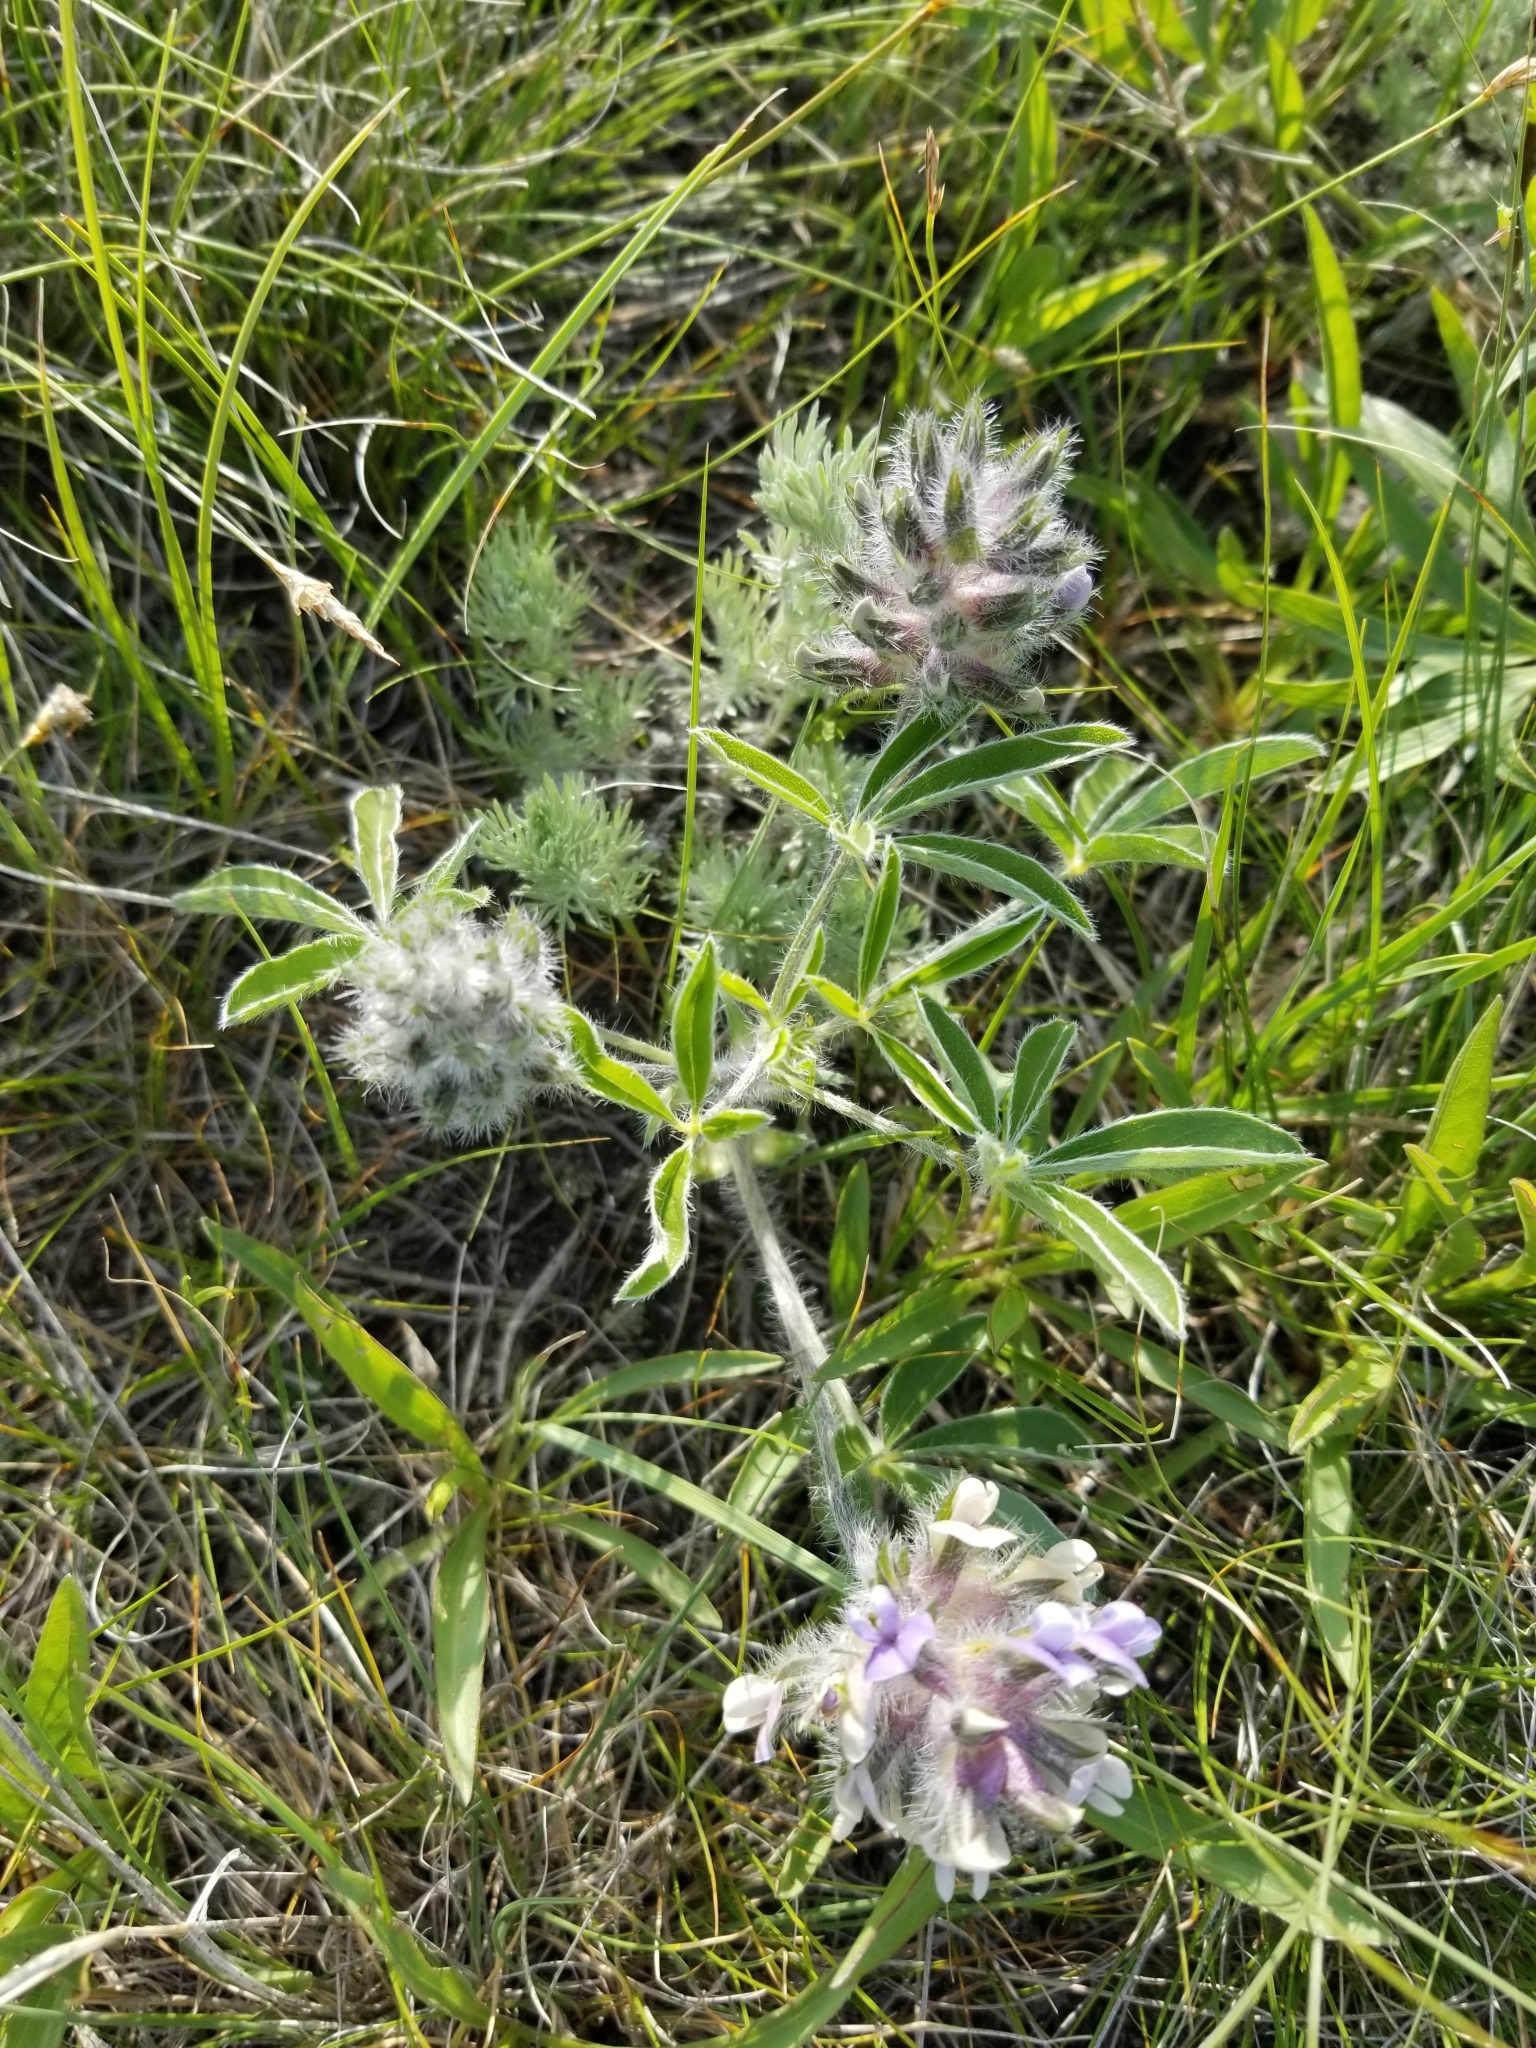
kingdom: Plantae
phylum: Tracheophyta
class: Magnoliopsida
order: Fabales
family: Fabaceae
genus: Pediomelum
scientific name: Pediomelum esculentum
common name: Indian-turnip
